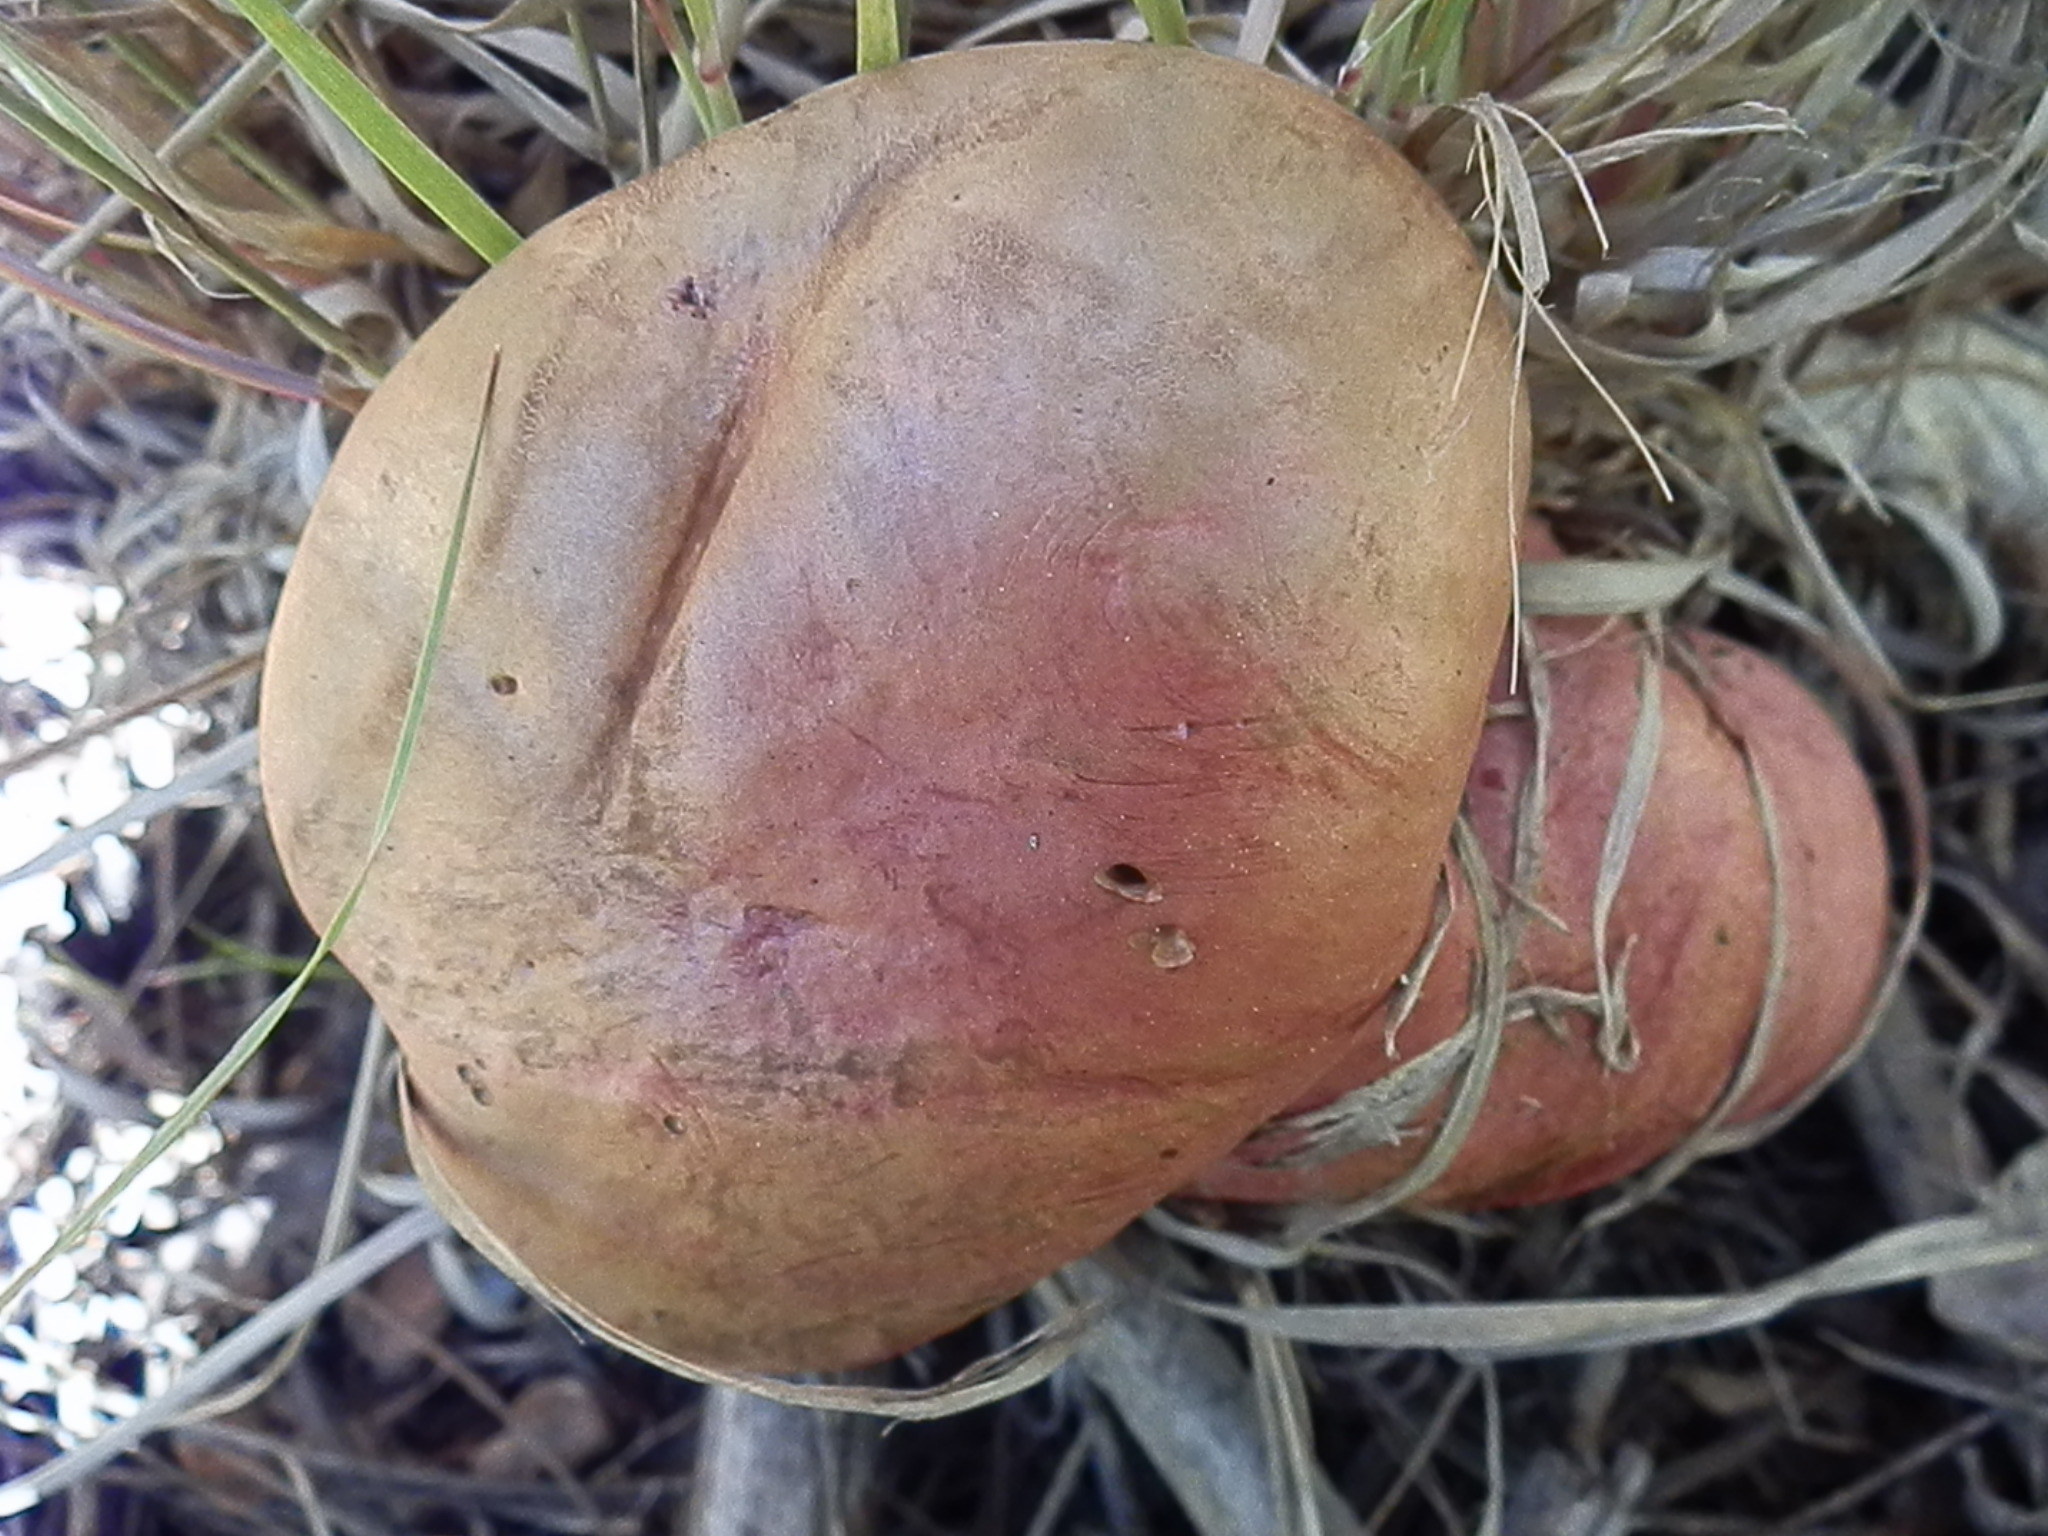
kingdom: Fungi
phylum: Basidiomycota
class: Agaricomycetes
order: Boletales
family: Boletaceae
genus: Harrya
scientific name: Harrya chromipes
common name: Chrome-footed bolete
